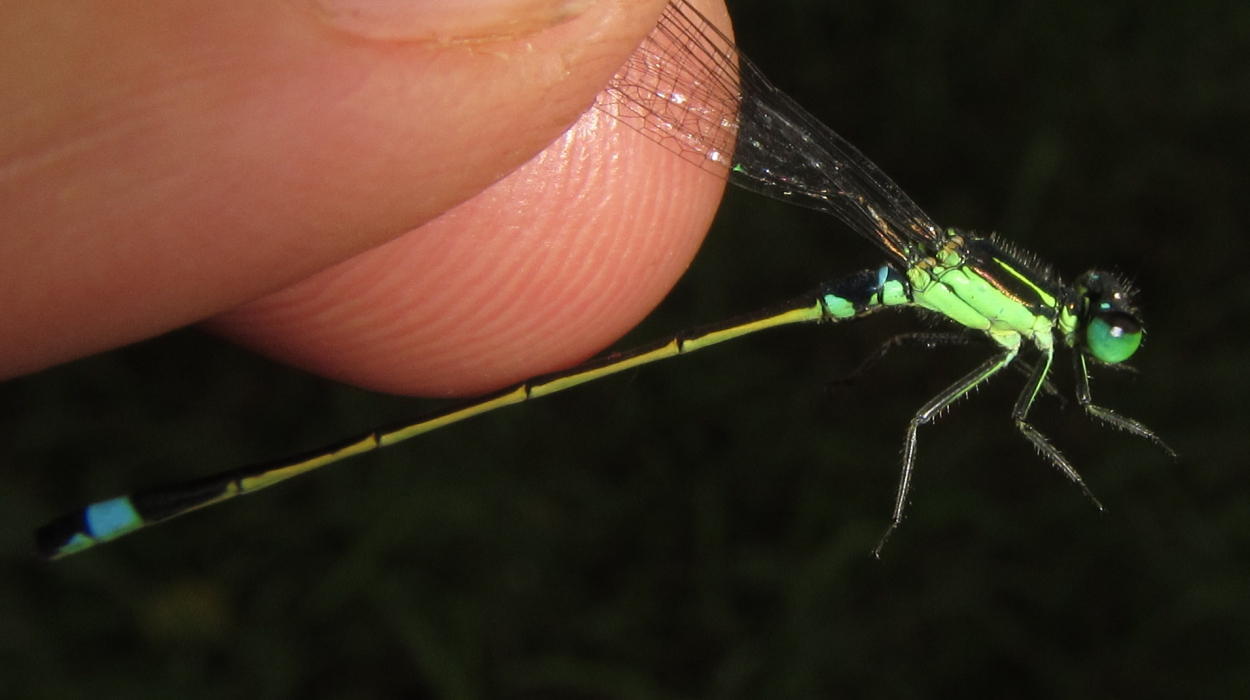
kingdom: Animalia
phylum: Arthropoda
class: Insecta
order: Odonata
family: Coenagrionidae
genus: Ischnura
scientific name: Ischnura senegalensis
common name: Tropical bluetail
